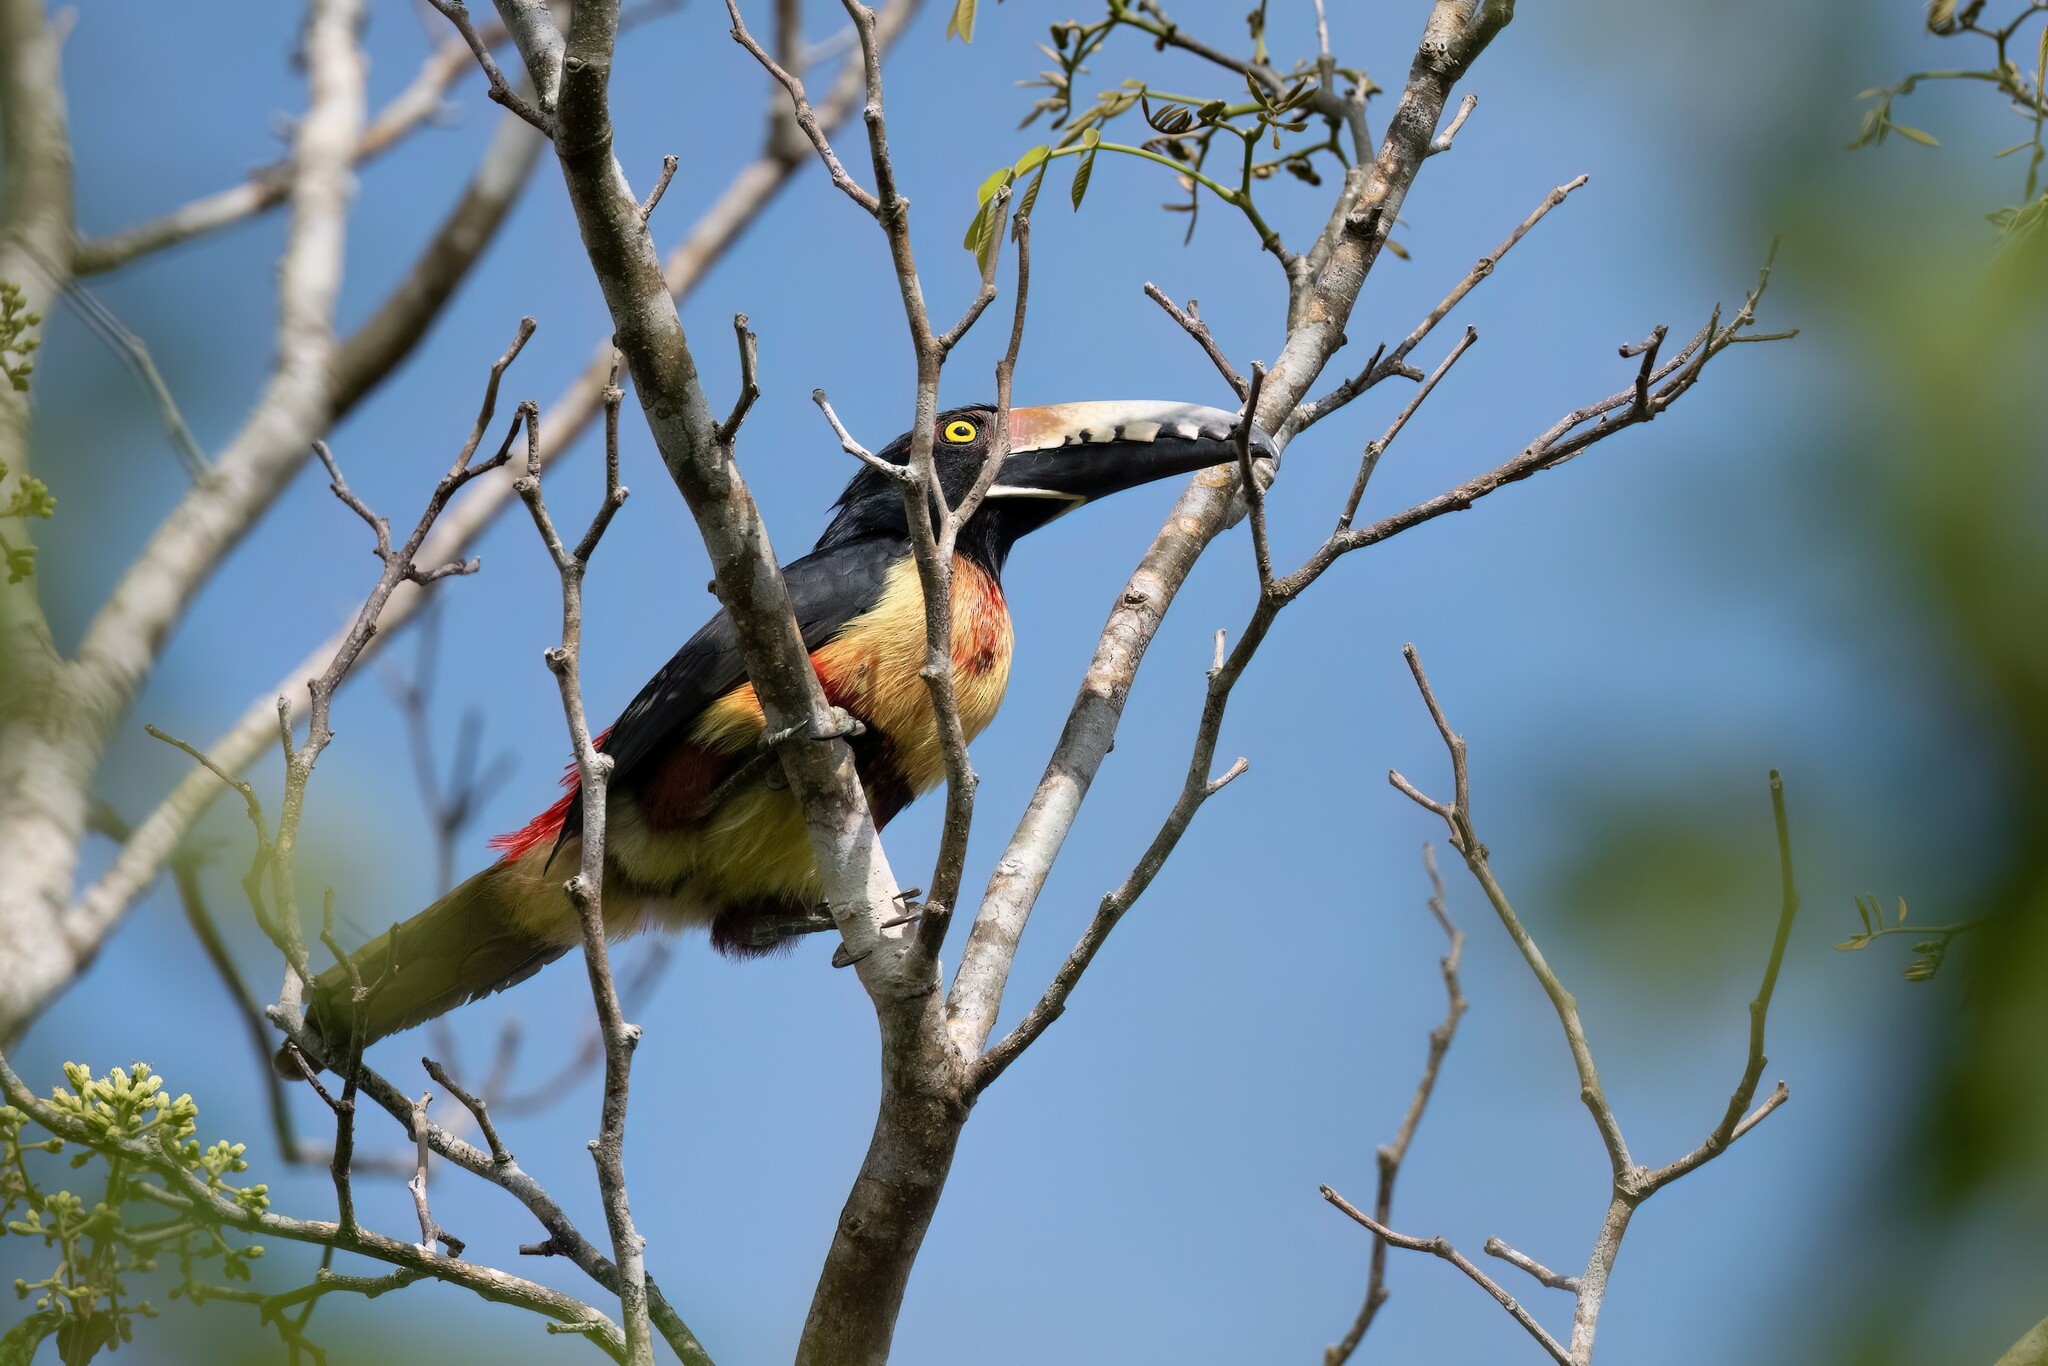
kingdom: Animalia
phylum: Chordata
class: Aves
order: Piciformes
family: Ramphastidae
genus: Pteroglossus
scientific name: Pteroglossus torquatus
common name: Collared aracari
